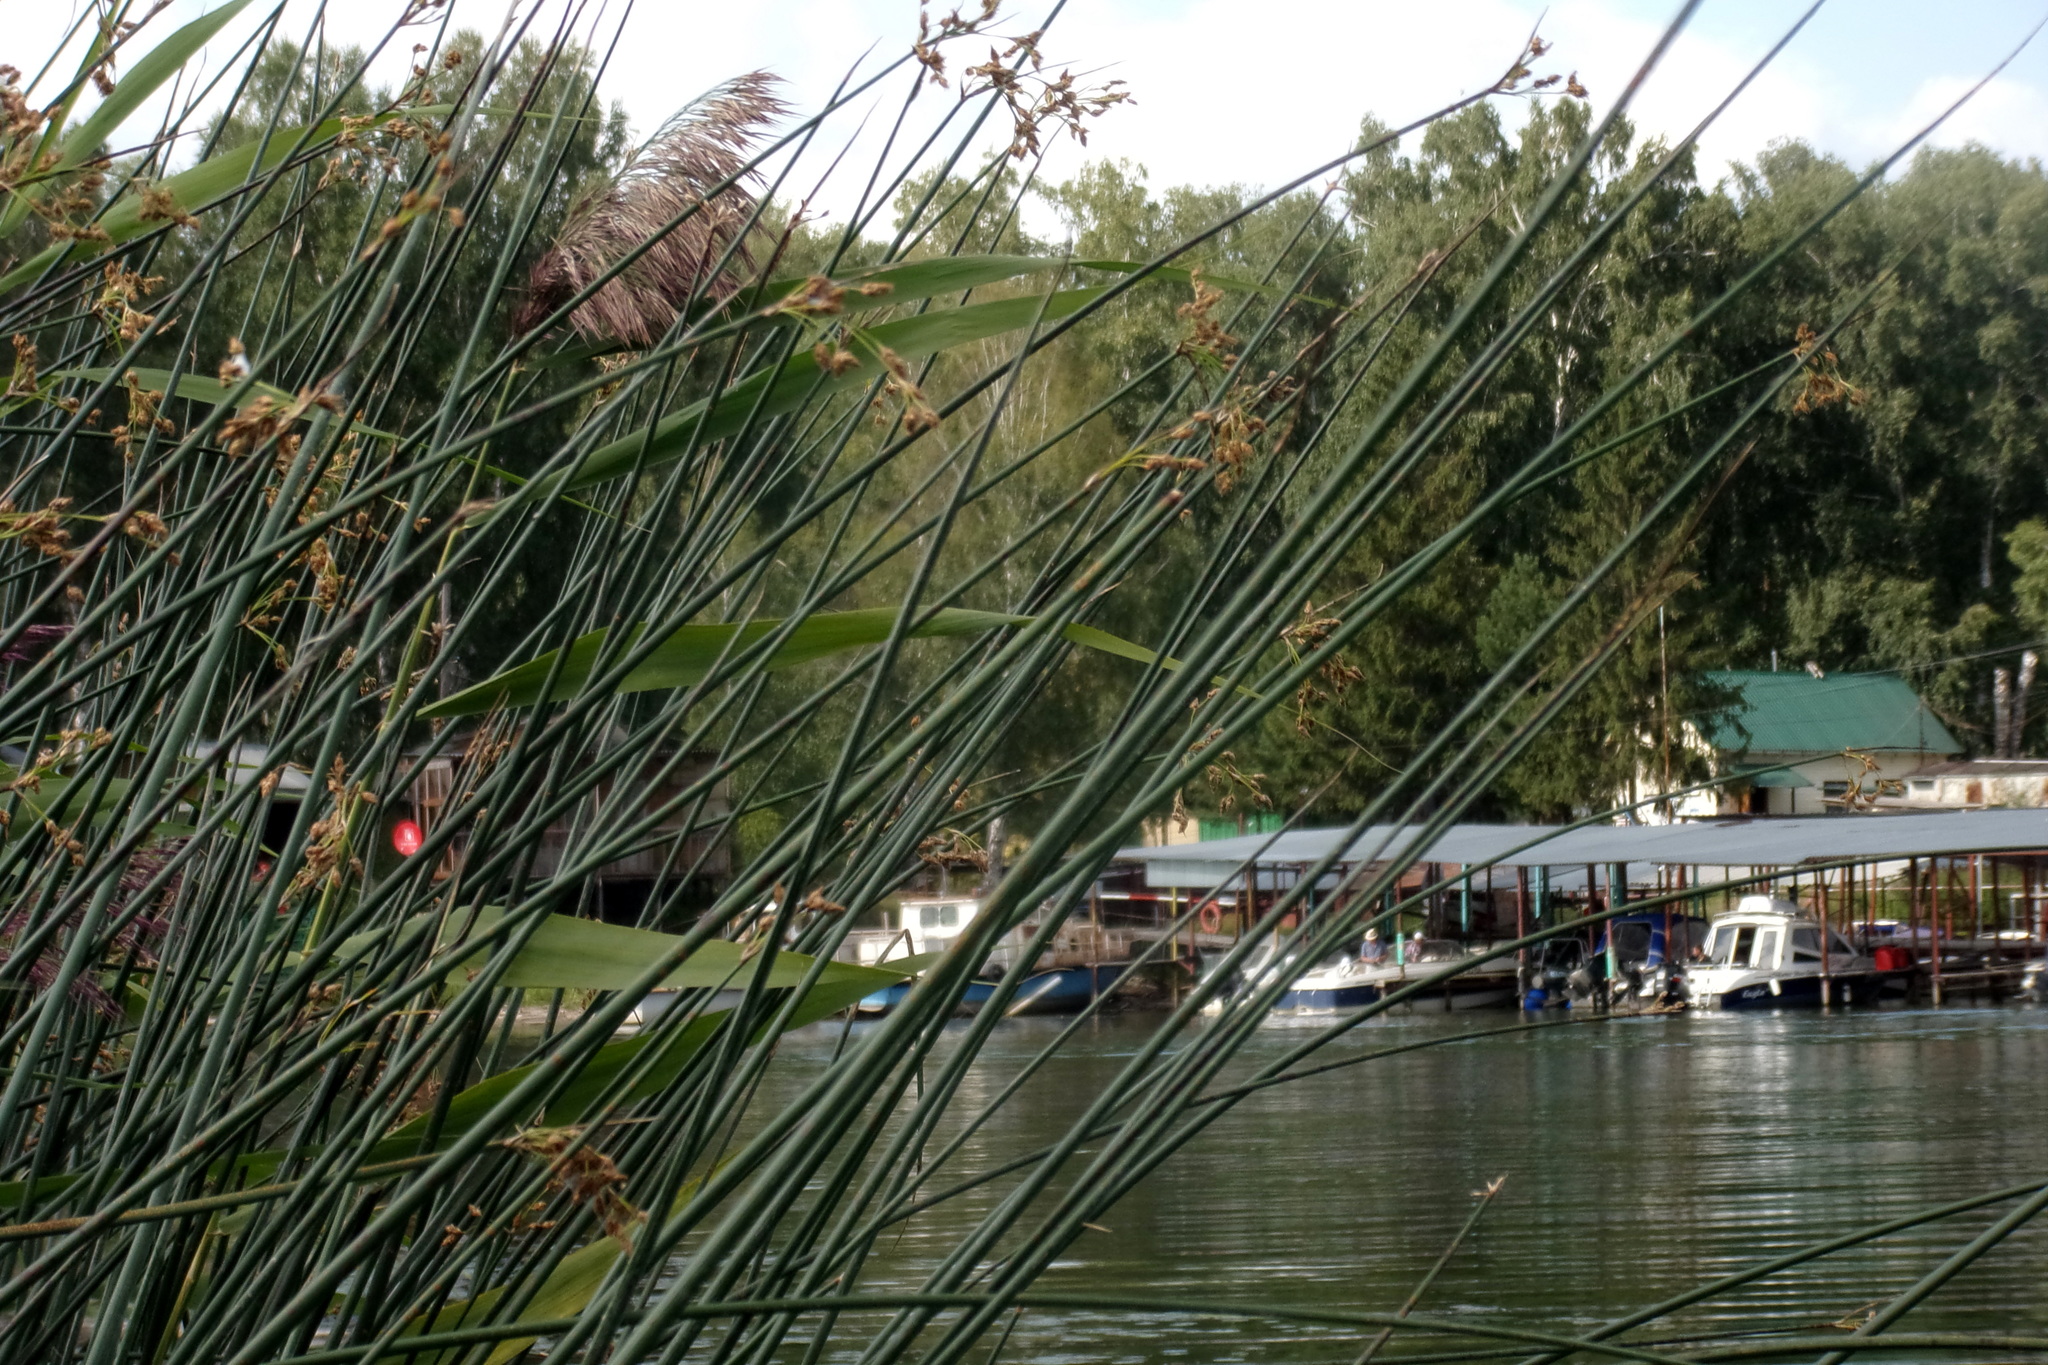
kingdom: Plantae
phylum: Tracheophyta
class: Liliopsida
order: Poales
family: Cyperaceae
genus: Schoenoplectus
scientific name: Schoenoplectus lacustris
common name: Common club-rush
